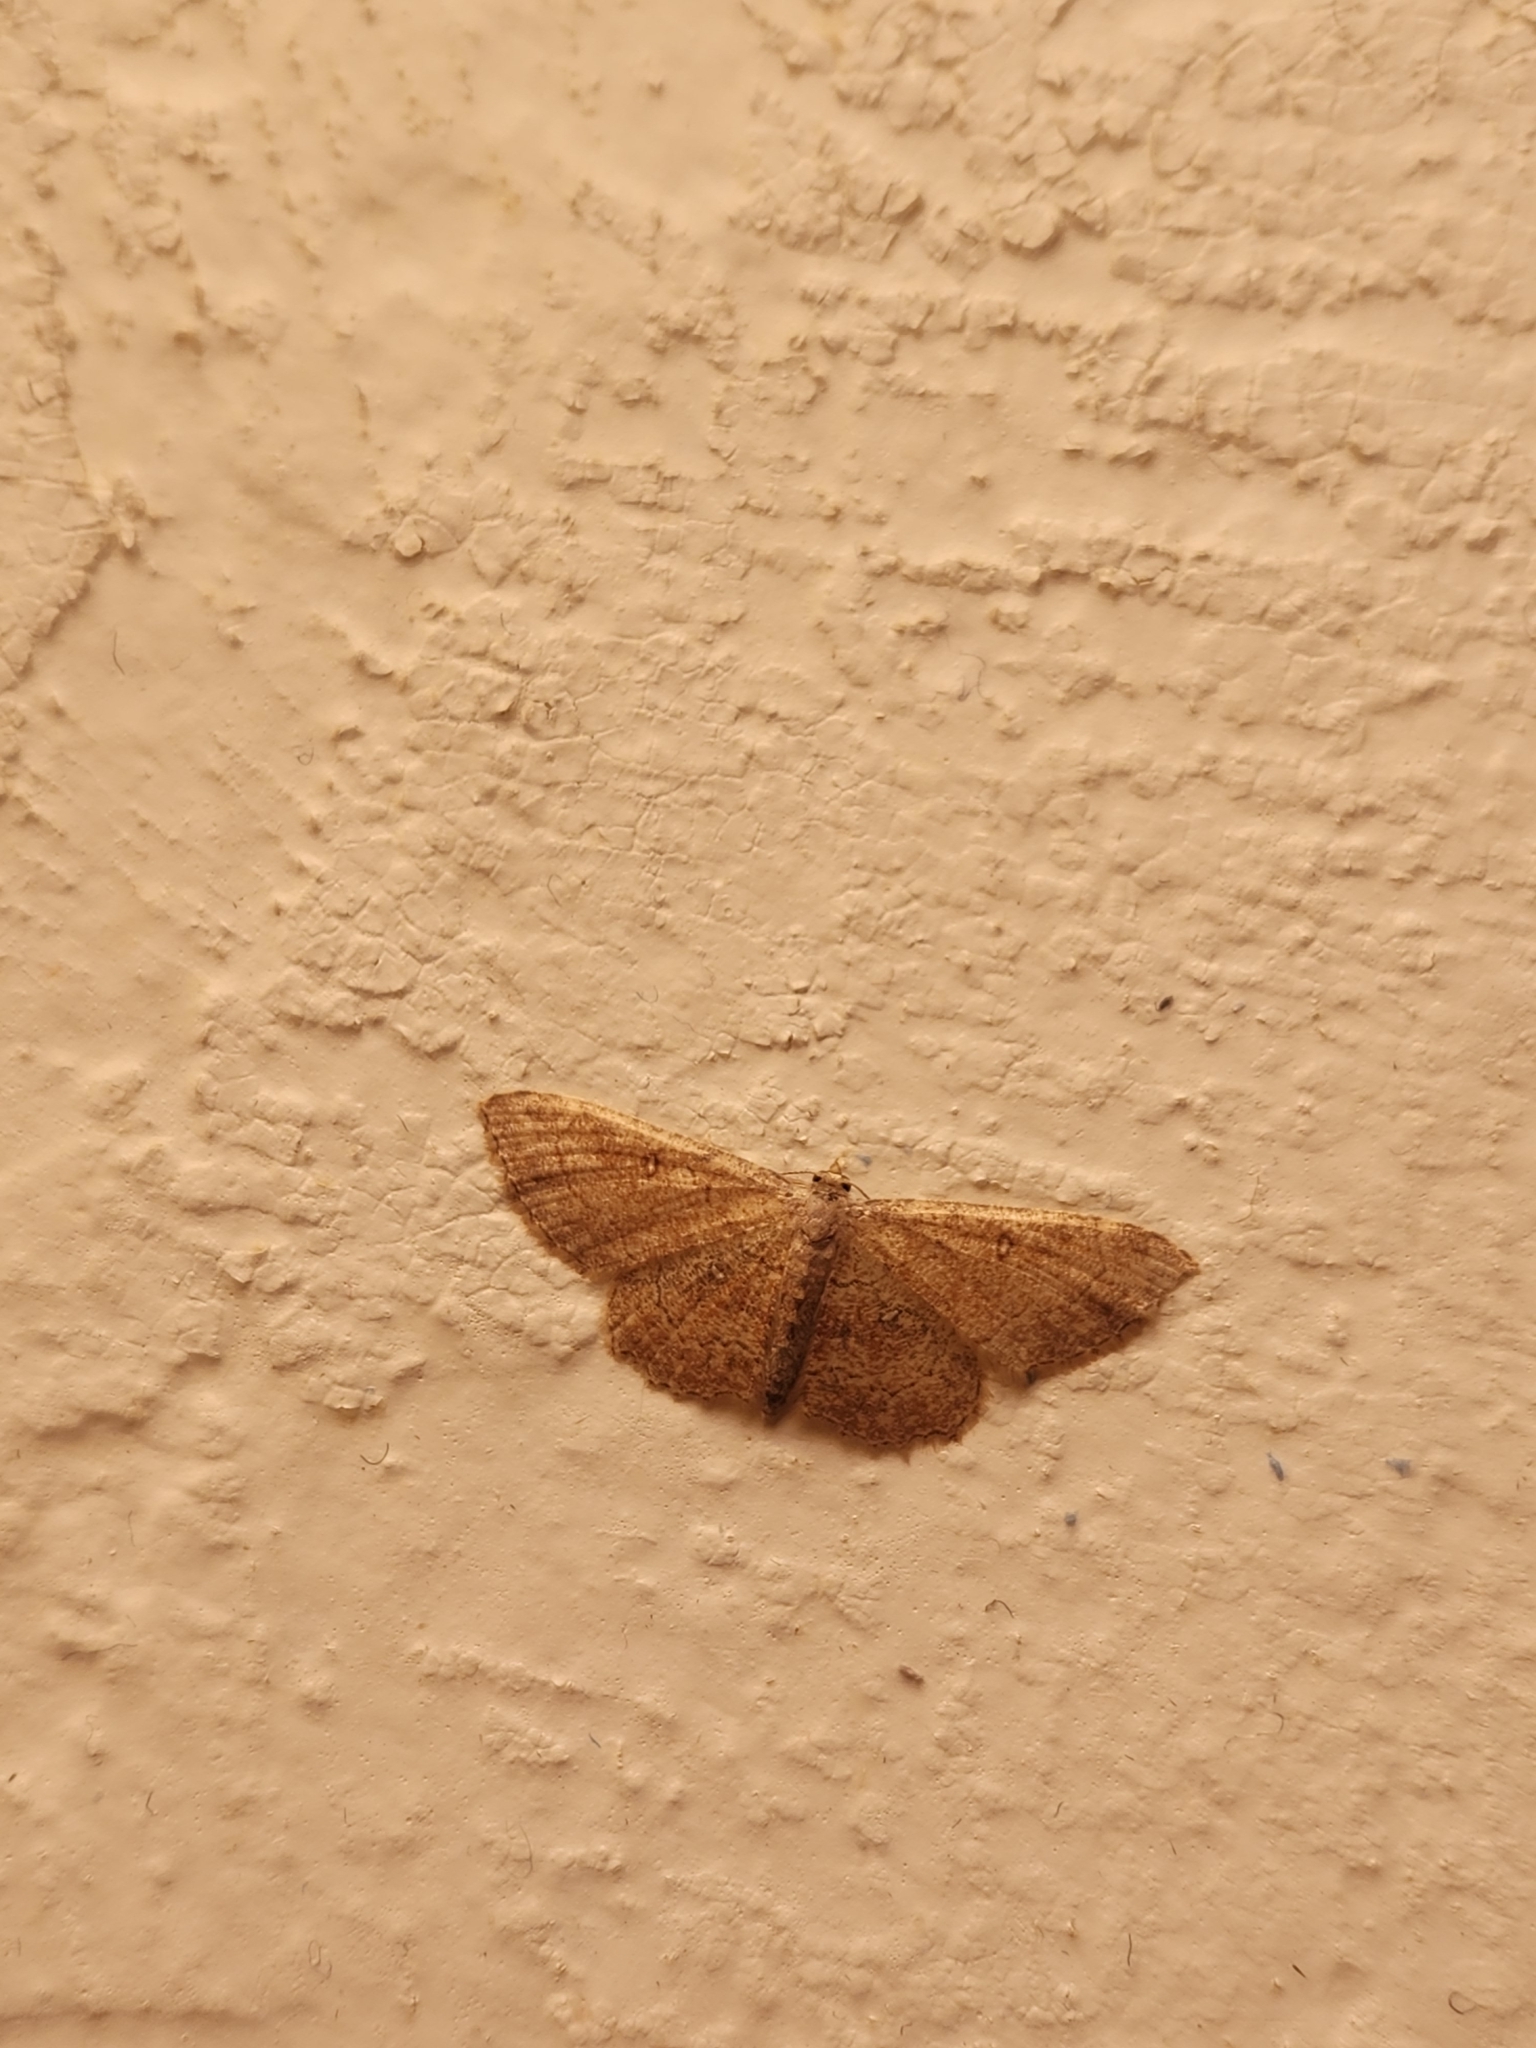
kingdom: Animalia
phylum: Arthropoda
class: Insecta
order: Lepidoptera
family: Geometridae
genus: Cyclophora
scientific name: Cyclophora nanaria
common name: Cankerworm
